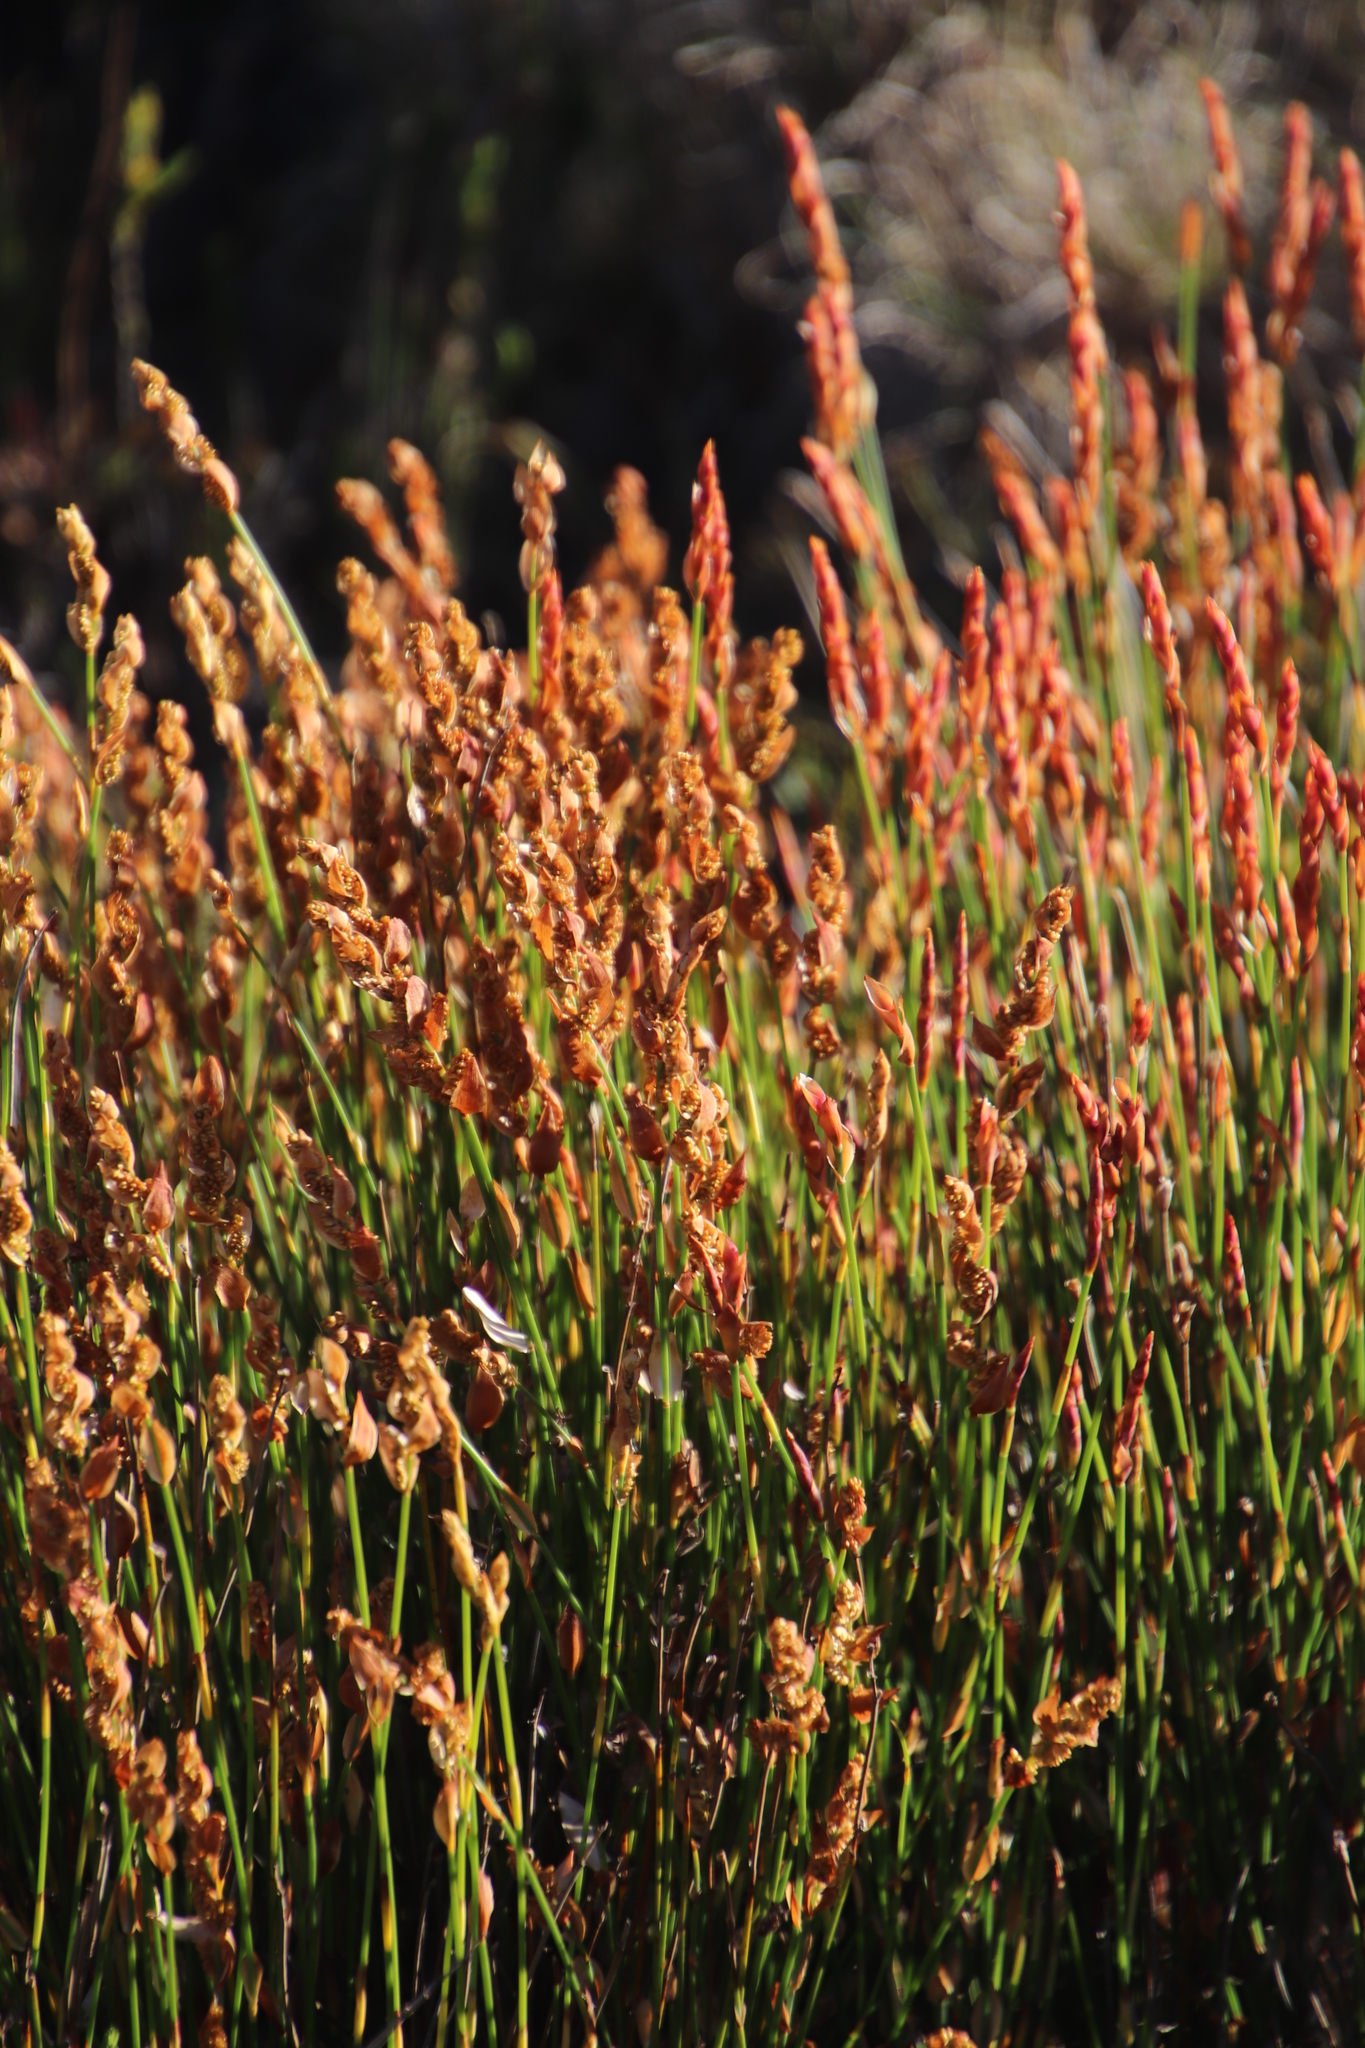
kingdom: Plantae
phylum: Tracheophyta
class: Liliopsida
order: Poales
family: Restionaceae
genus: Elegia
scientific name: Elegia stipularis
